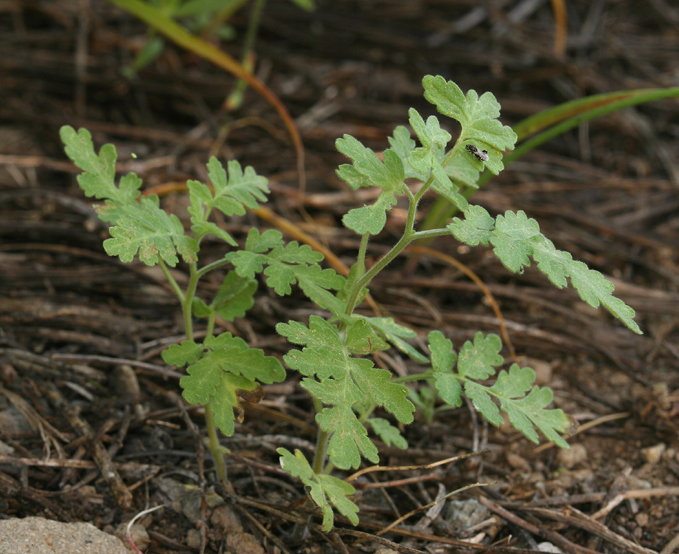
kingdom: Plantae
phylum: Tracheophyta
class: Magnoliopsida
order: Boraginales
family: Hydrophyllaceae
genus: Phacelia
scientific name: Phacelia ramosissima
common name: Branching phacelia
